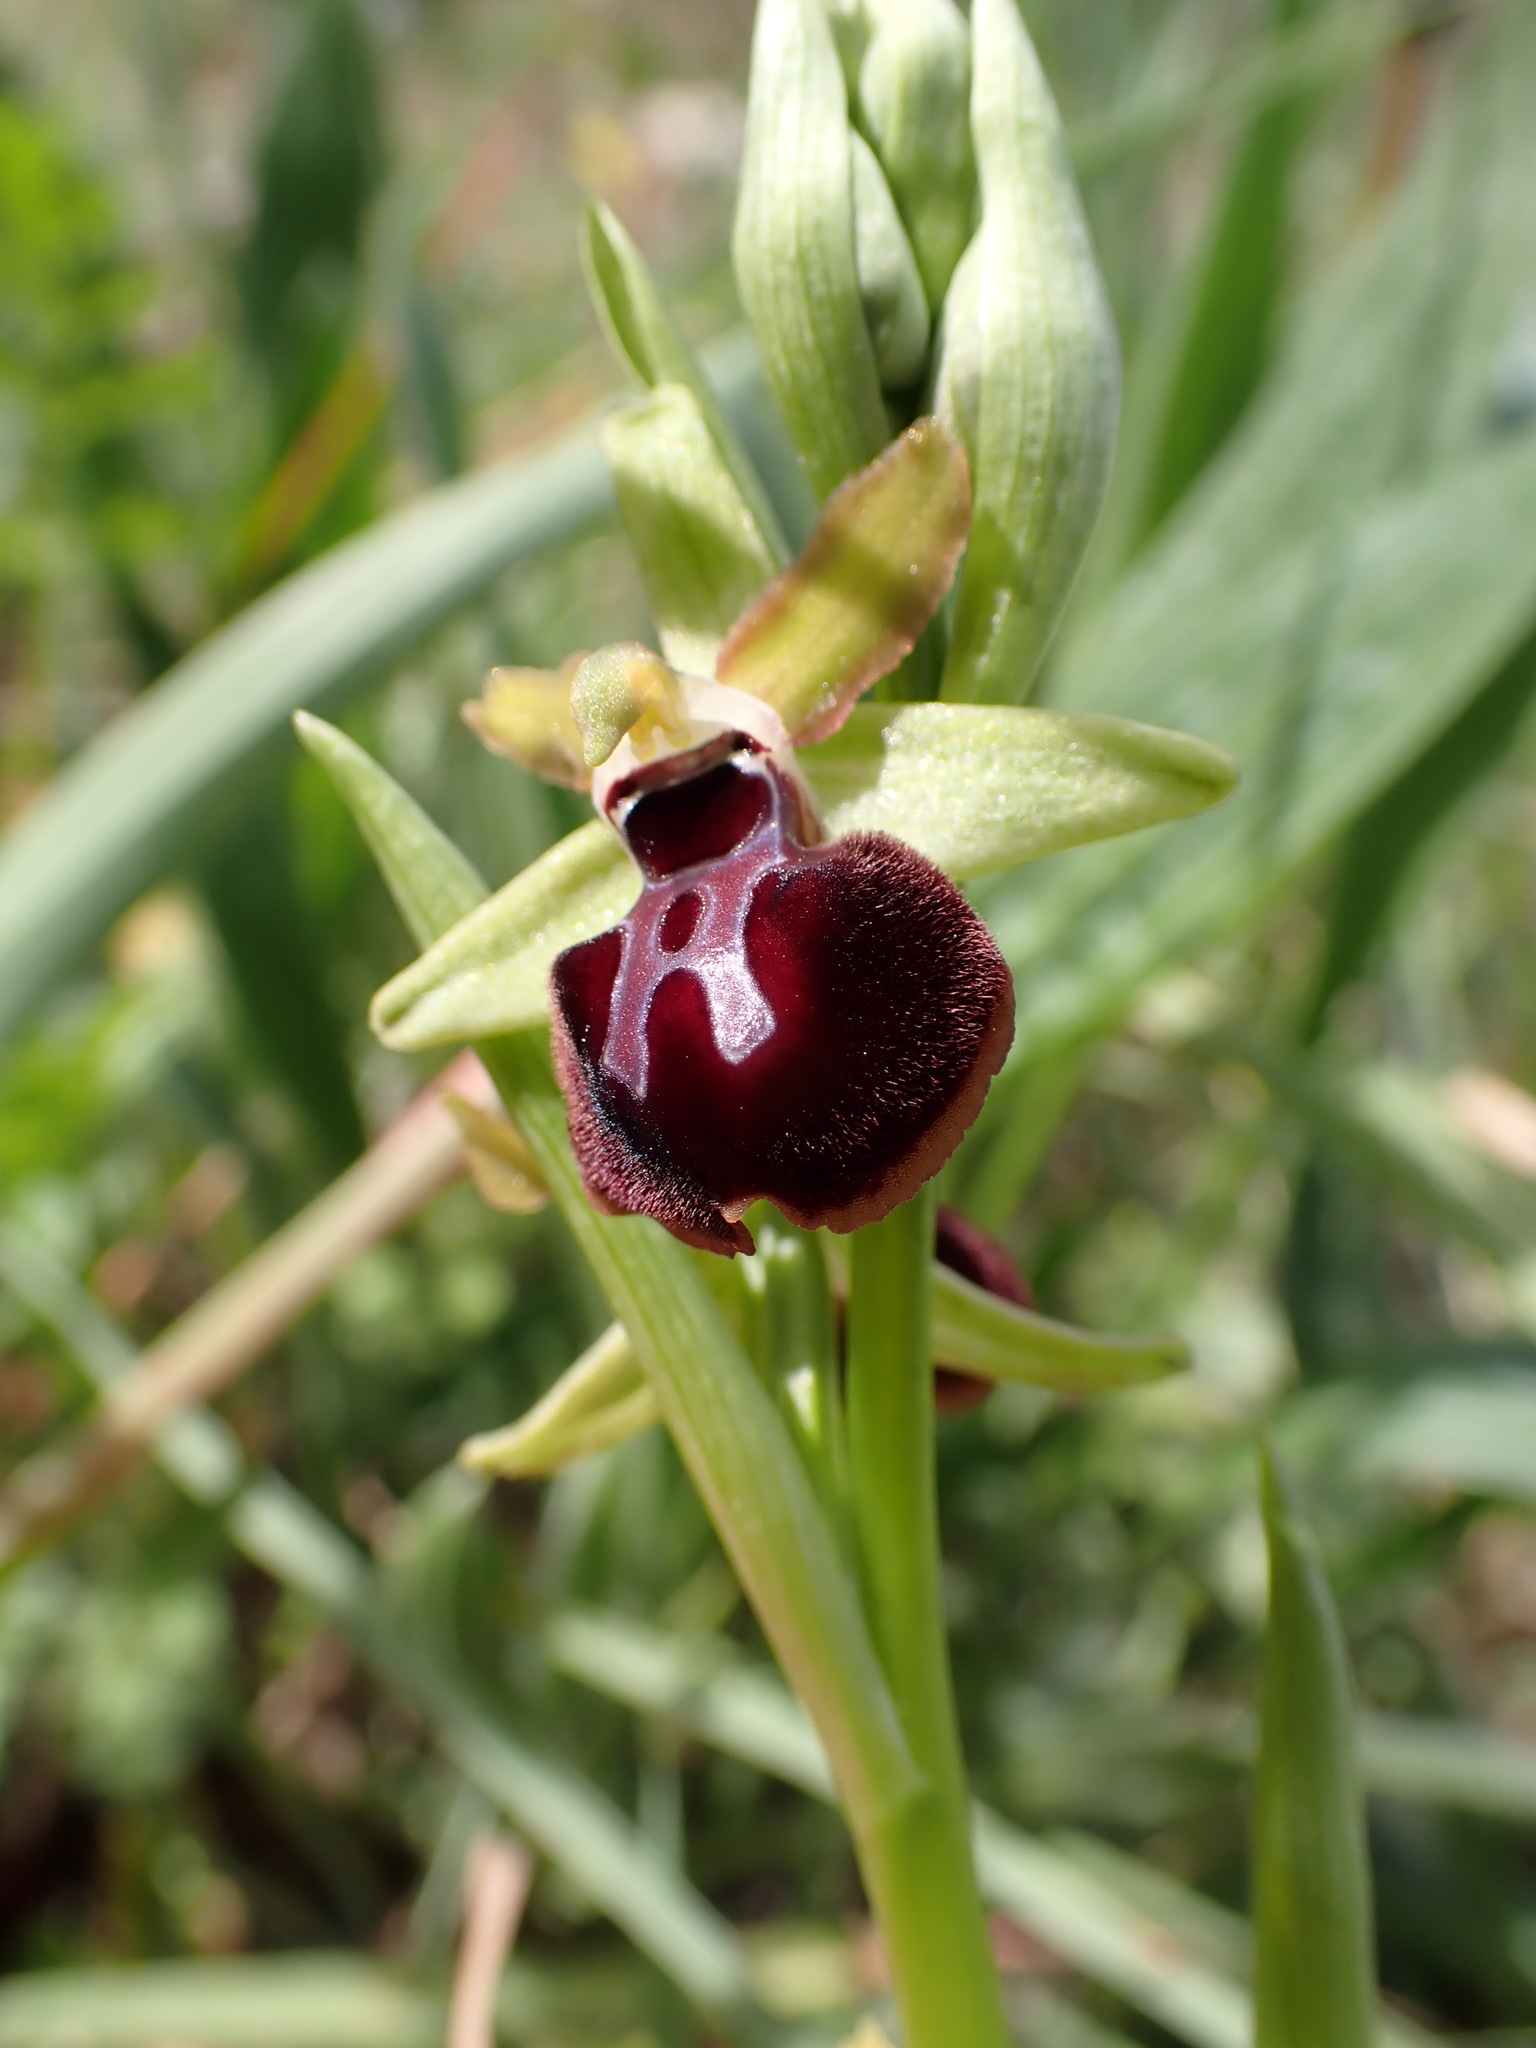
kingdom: Plantae
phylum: Tracheophyta
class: Liliopsida
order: Asparagales
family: Orchidaceae
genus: Ophrys
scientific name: Ophrys sphegodes
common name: Early spider-orchid
